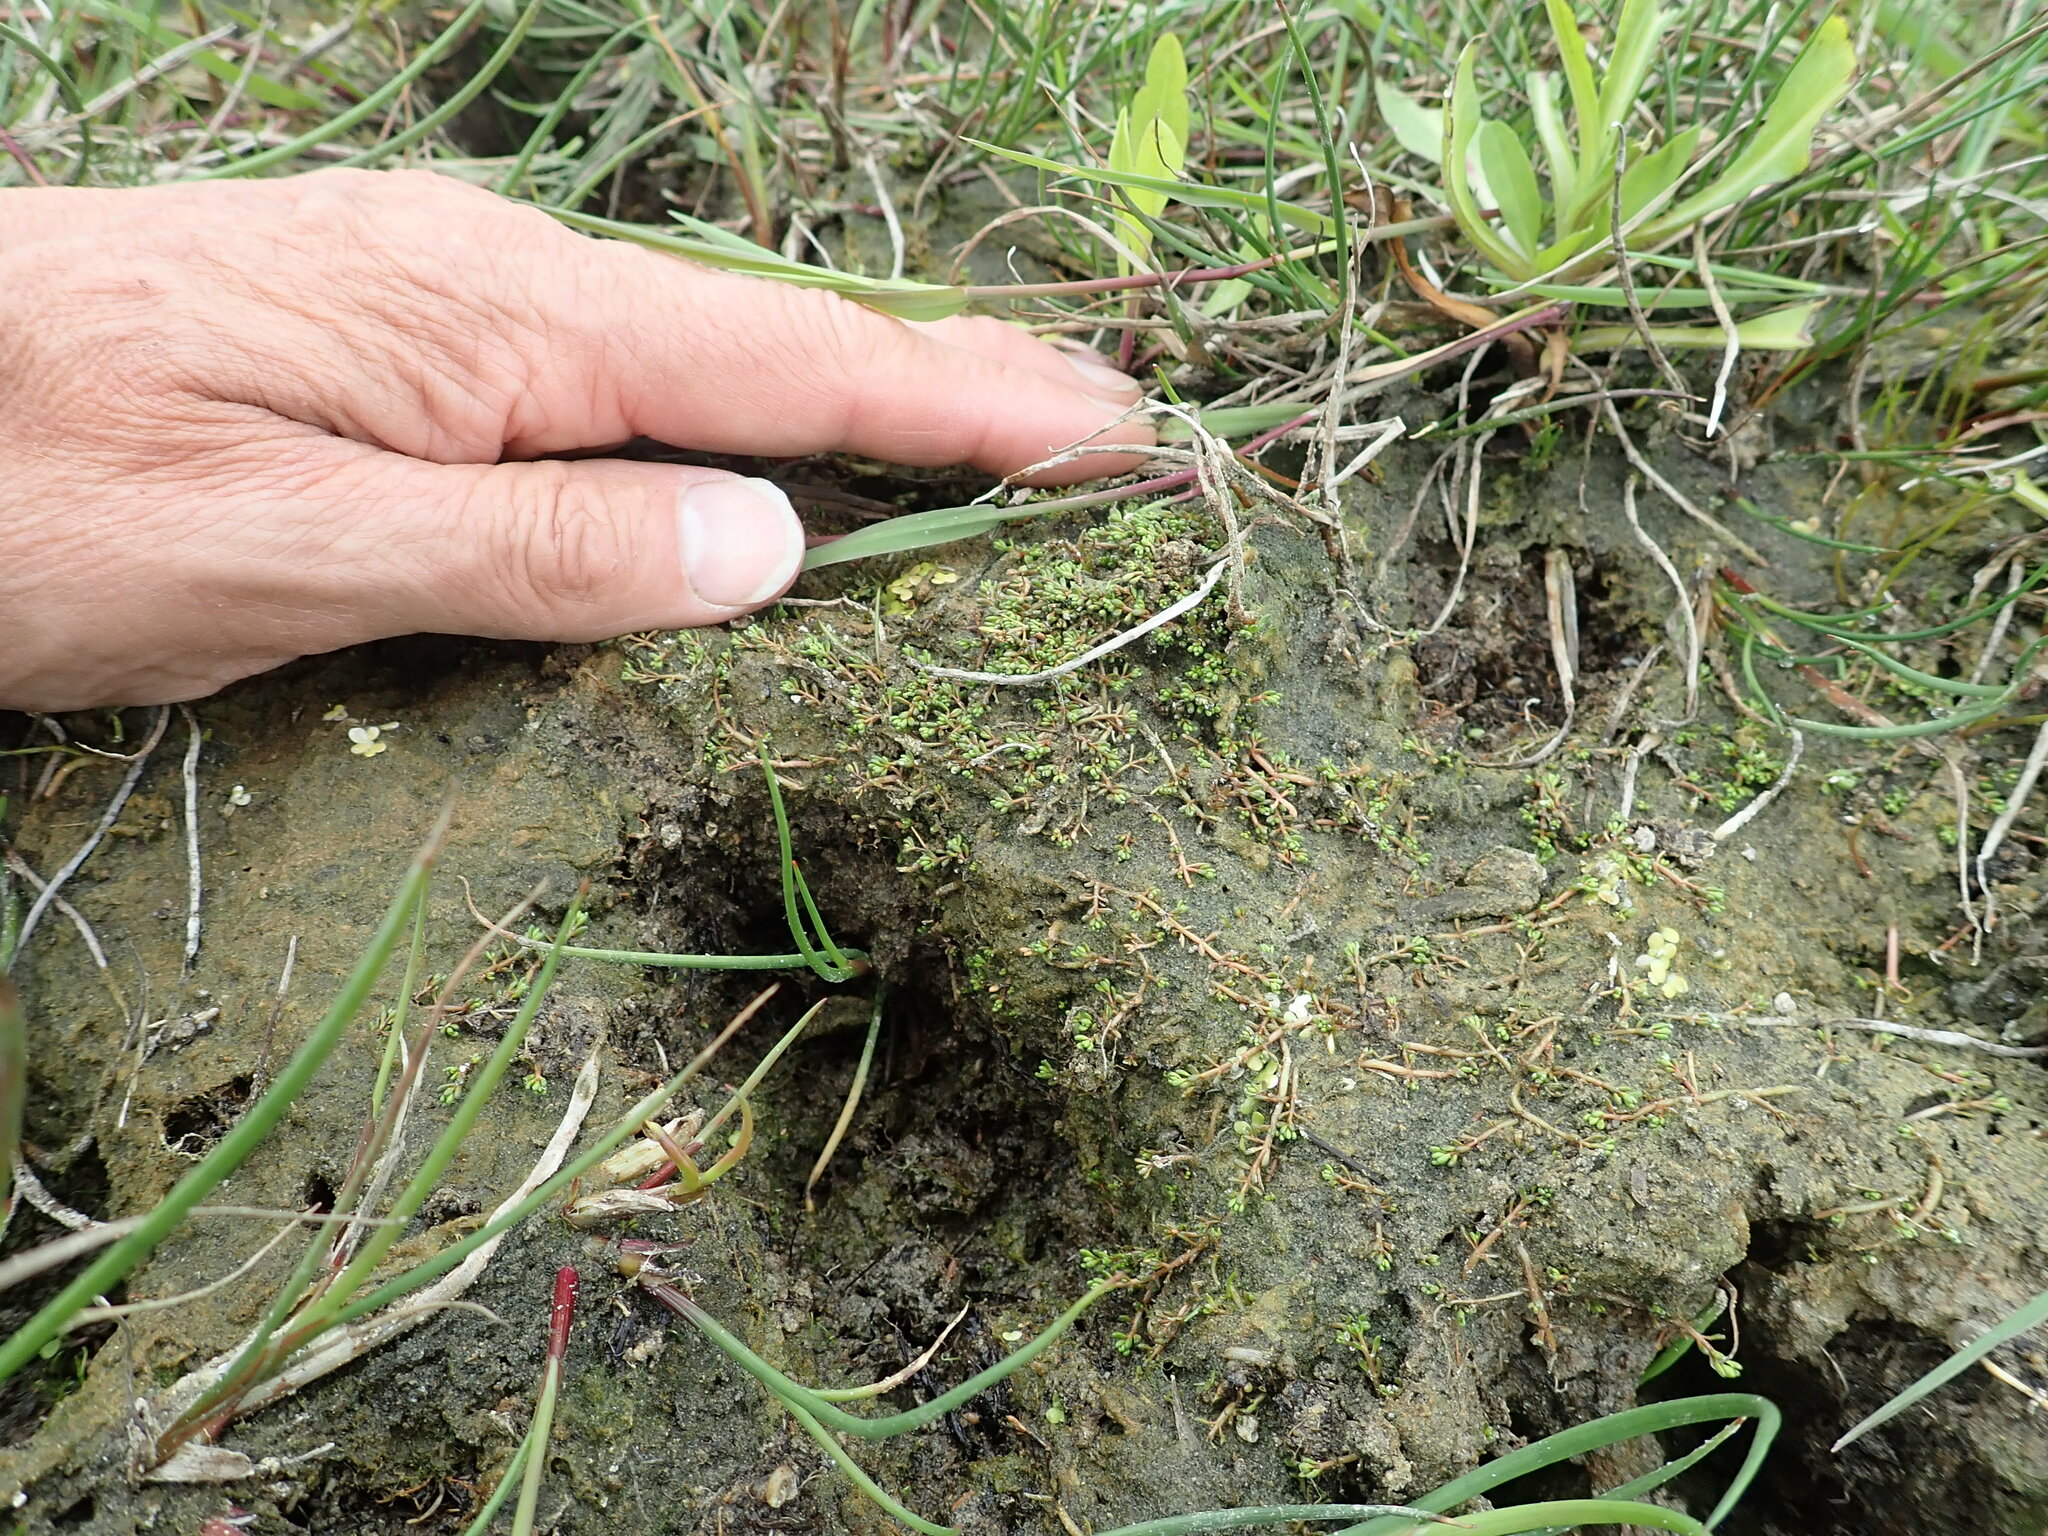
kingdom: Plantae
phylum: Tracheophyta
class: Magnoliopsida
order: Saxifragales
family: Haloragaceae
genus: Myriophyllum
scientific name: Myriophyllum votschii
